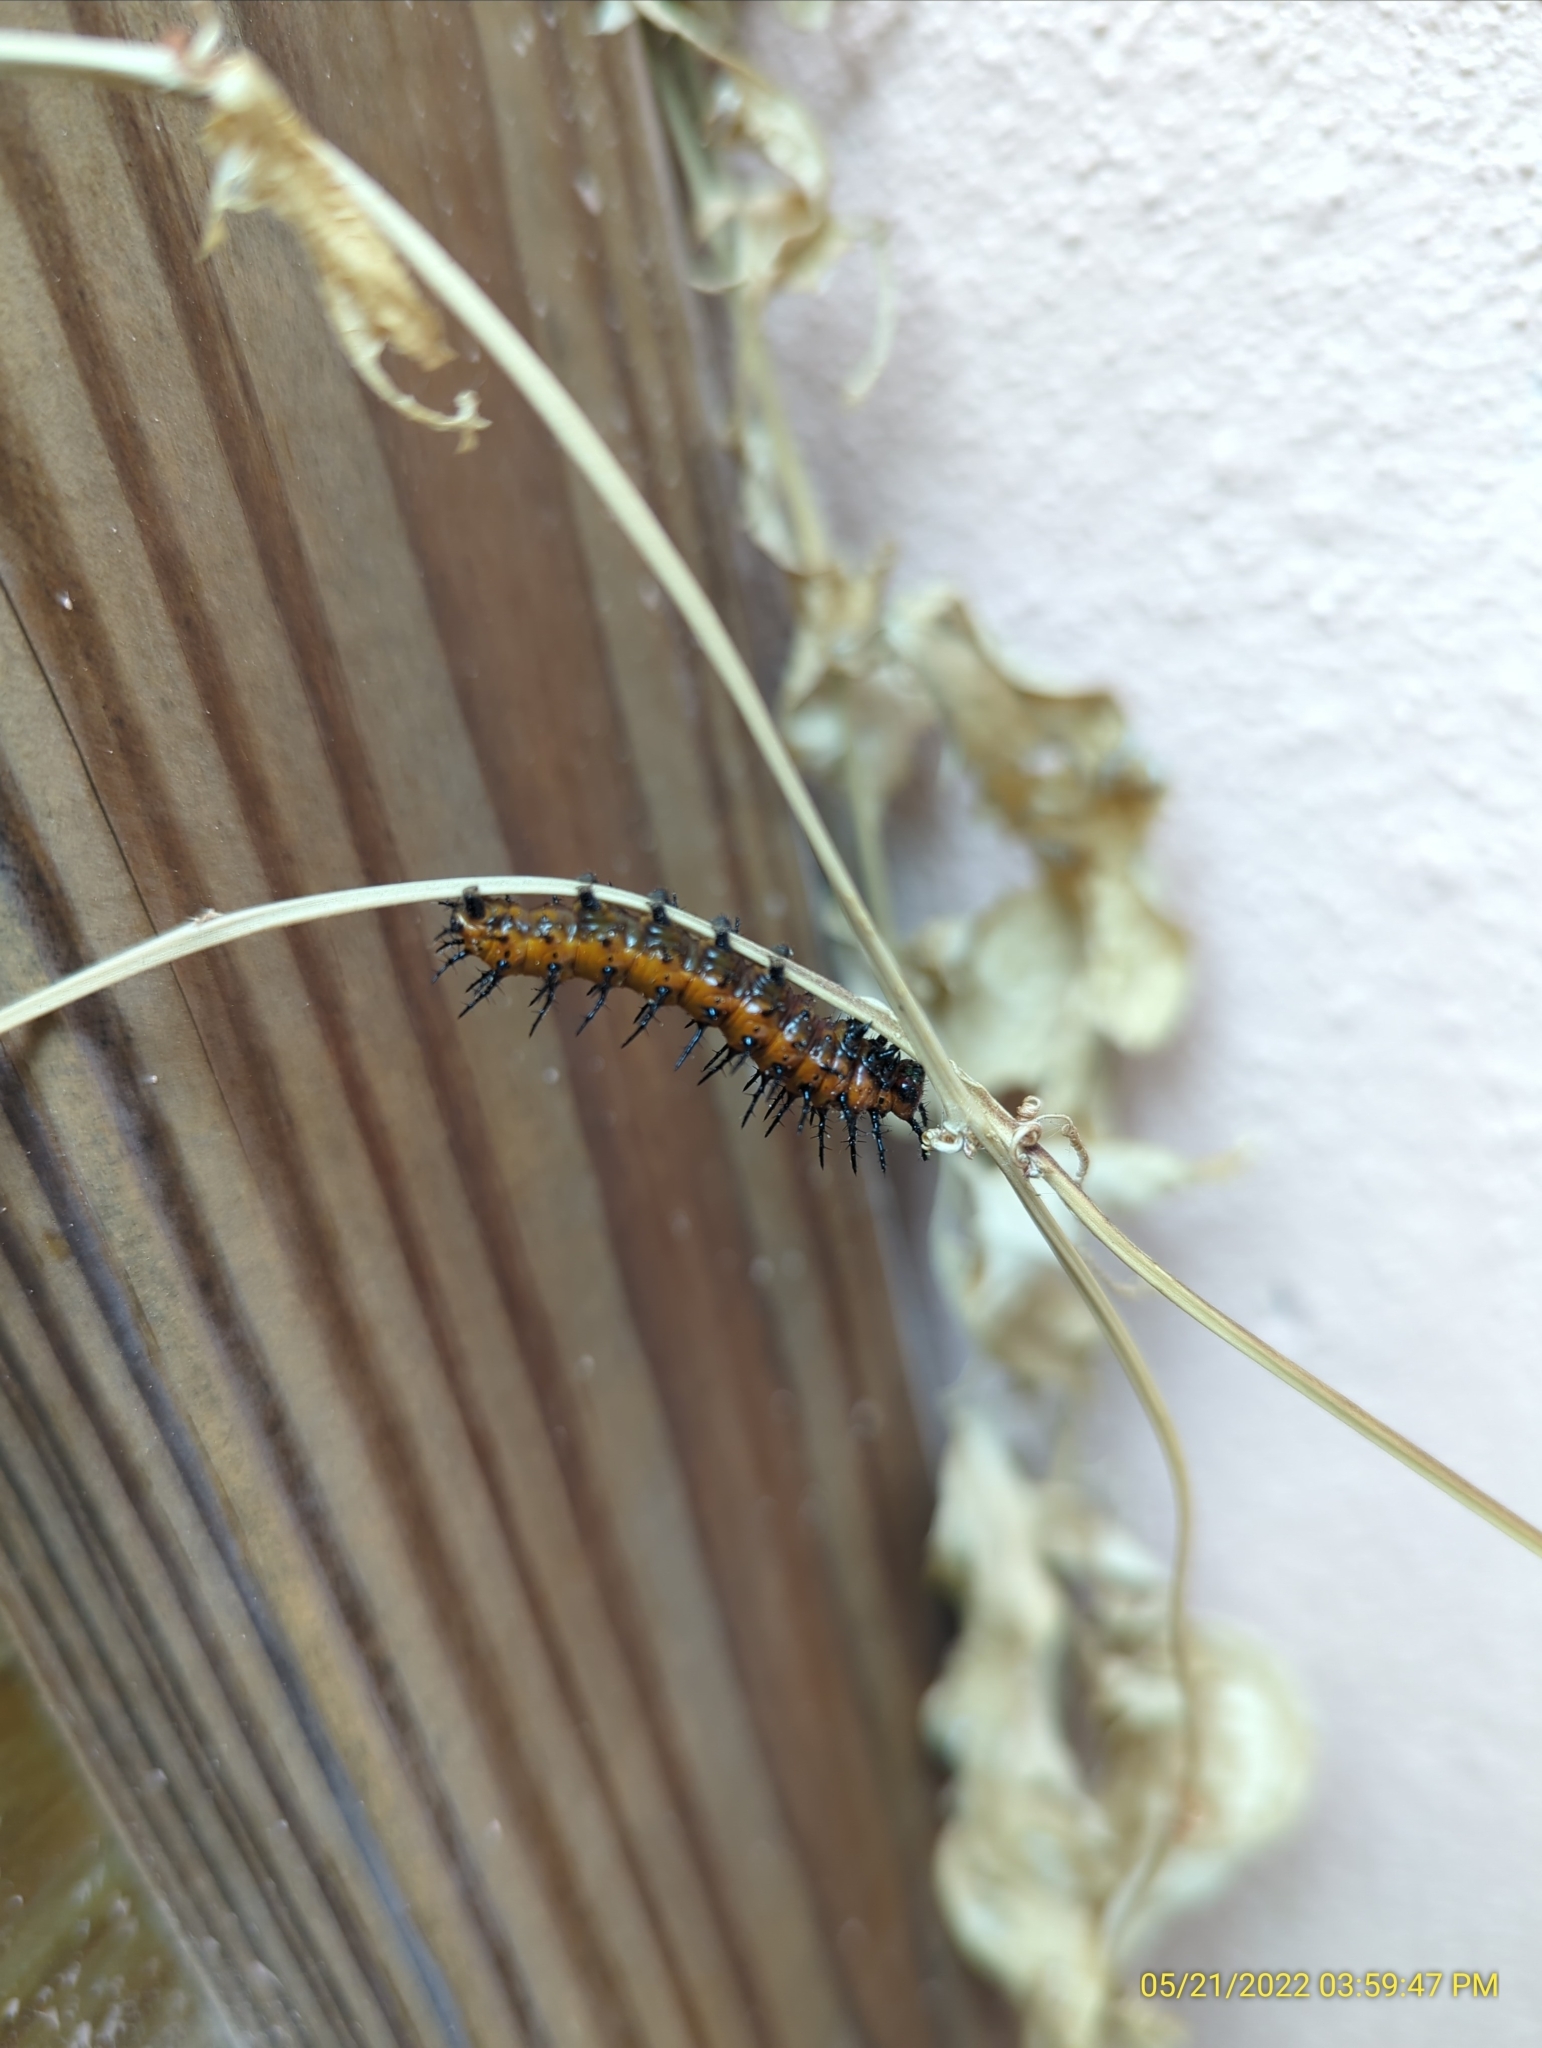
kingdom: Animalia
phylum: Arthropoda
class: Insecta
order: Lepidoptera
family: Nymphalidae
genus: Dione
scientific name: Dione vanillae
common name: Gulf fritillary
